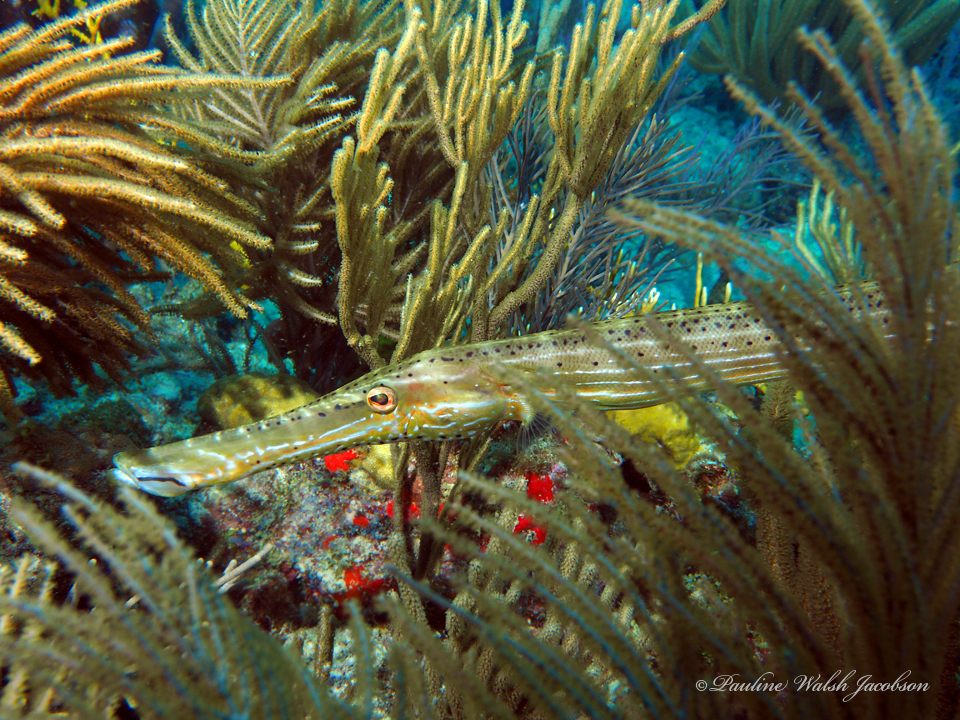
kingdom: Animalia
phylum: Chordata
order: Syngnathiformes
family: Aulostomidae
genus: Aulostomus
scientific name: Aulostomus maculatus
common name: West atlantic trumpetfish
